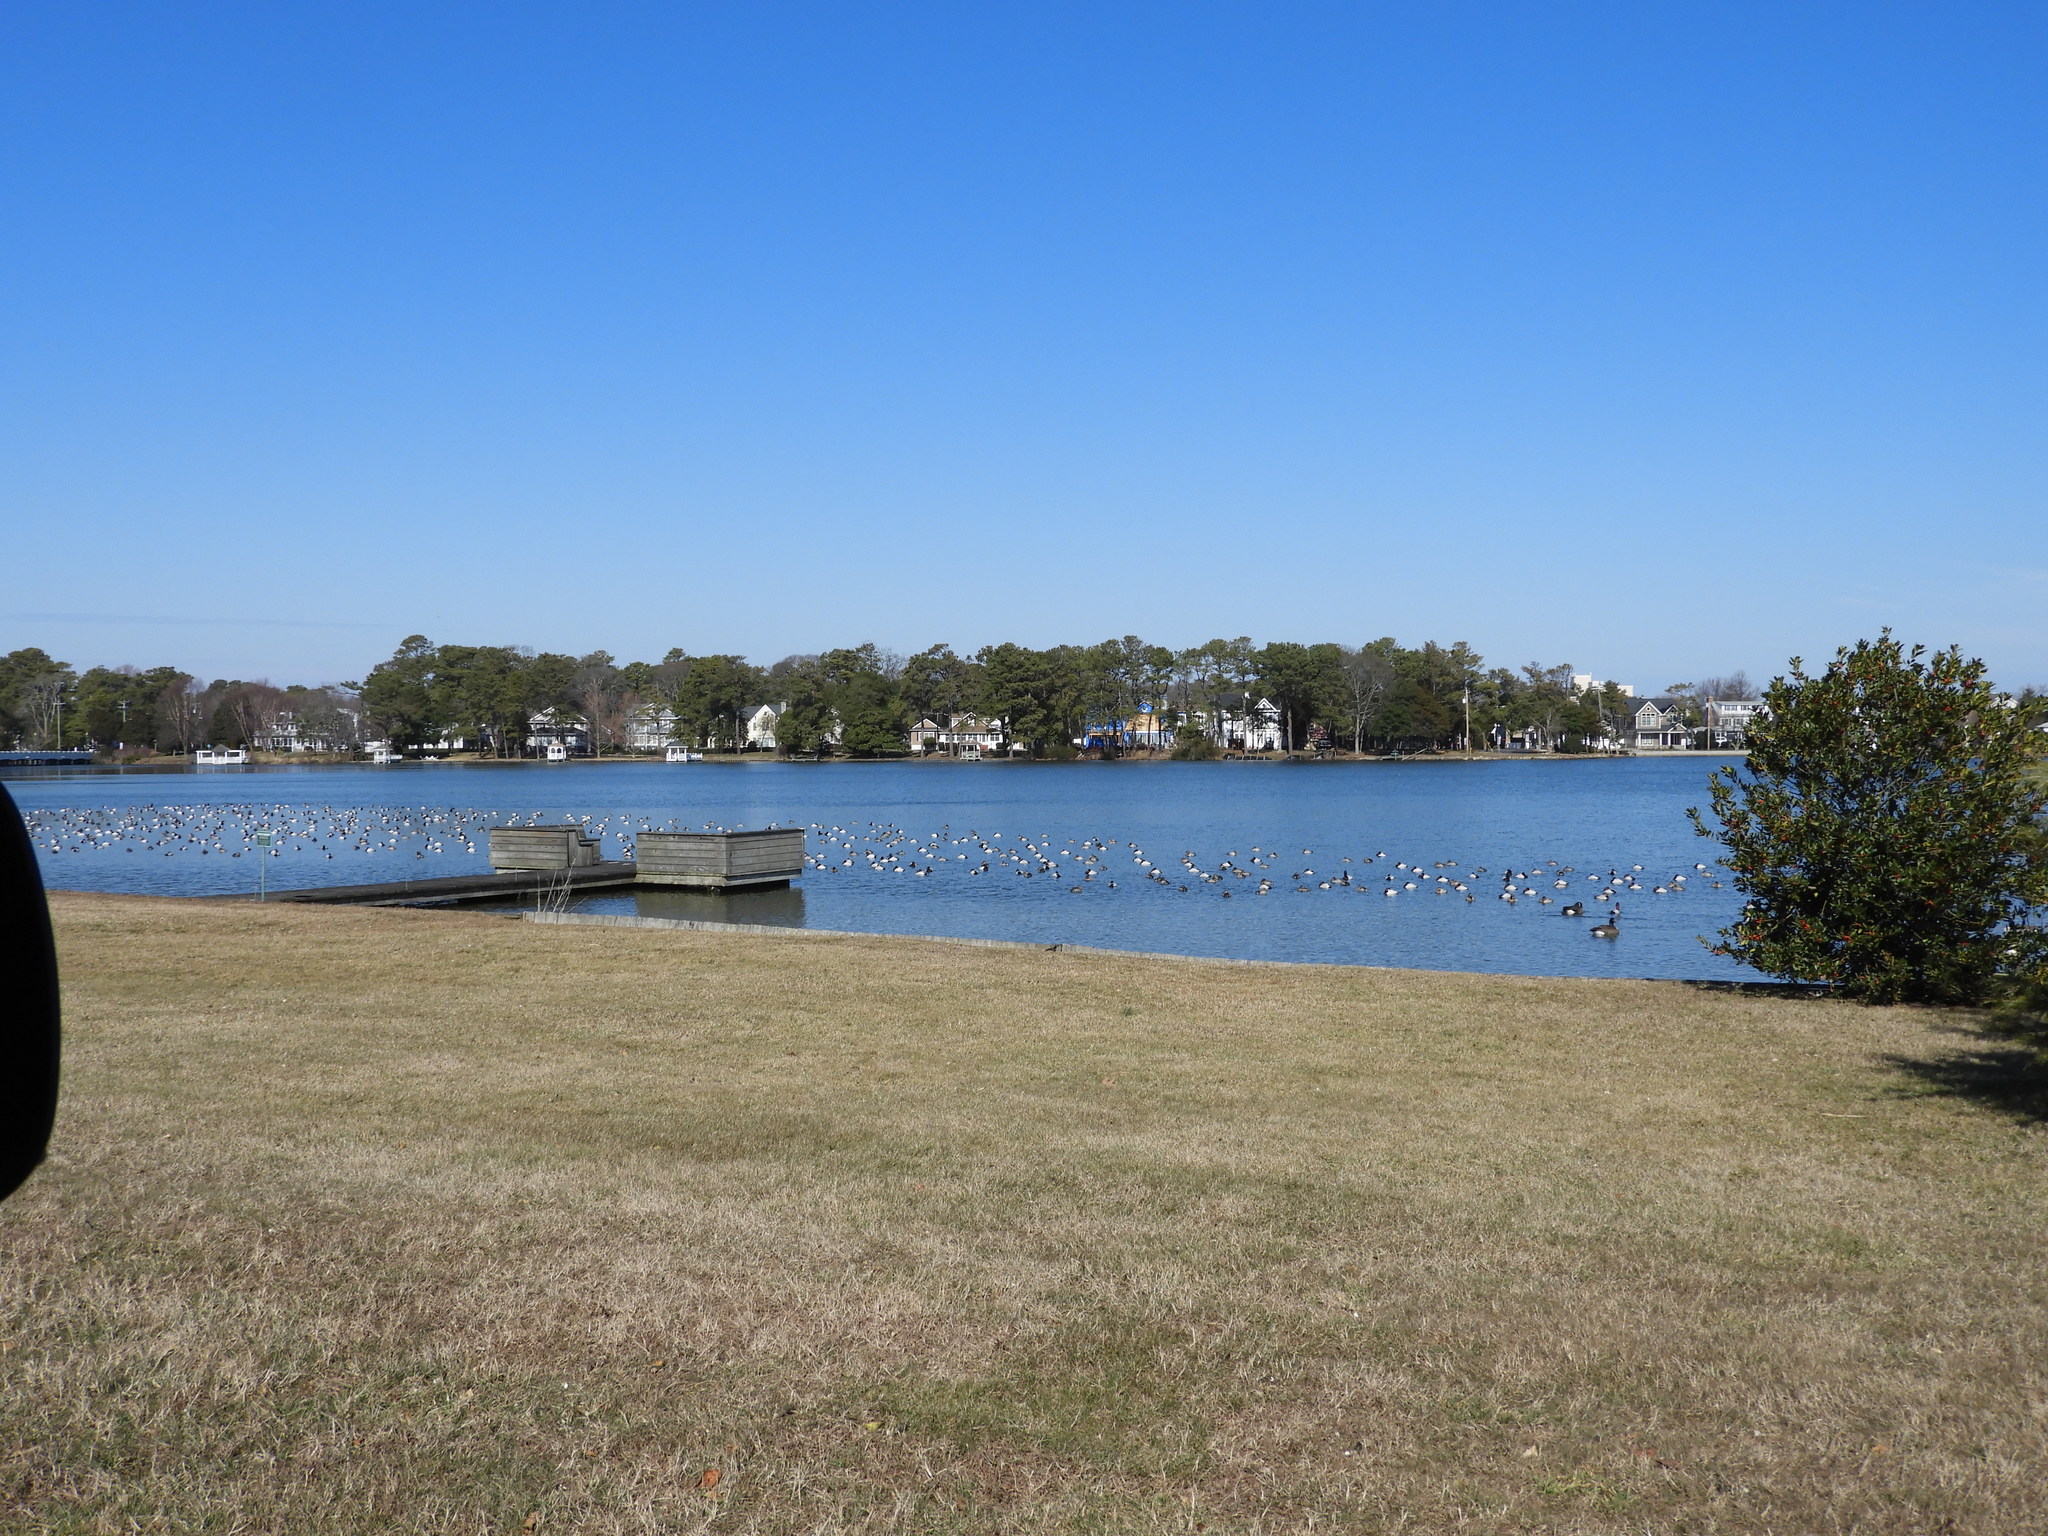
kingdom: Animalia
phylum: Chordata
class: Aves
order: Anseriformes
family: Anatidae
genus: Aythya
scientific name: Aythya valisineria
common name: Canvasback
